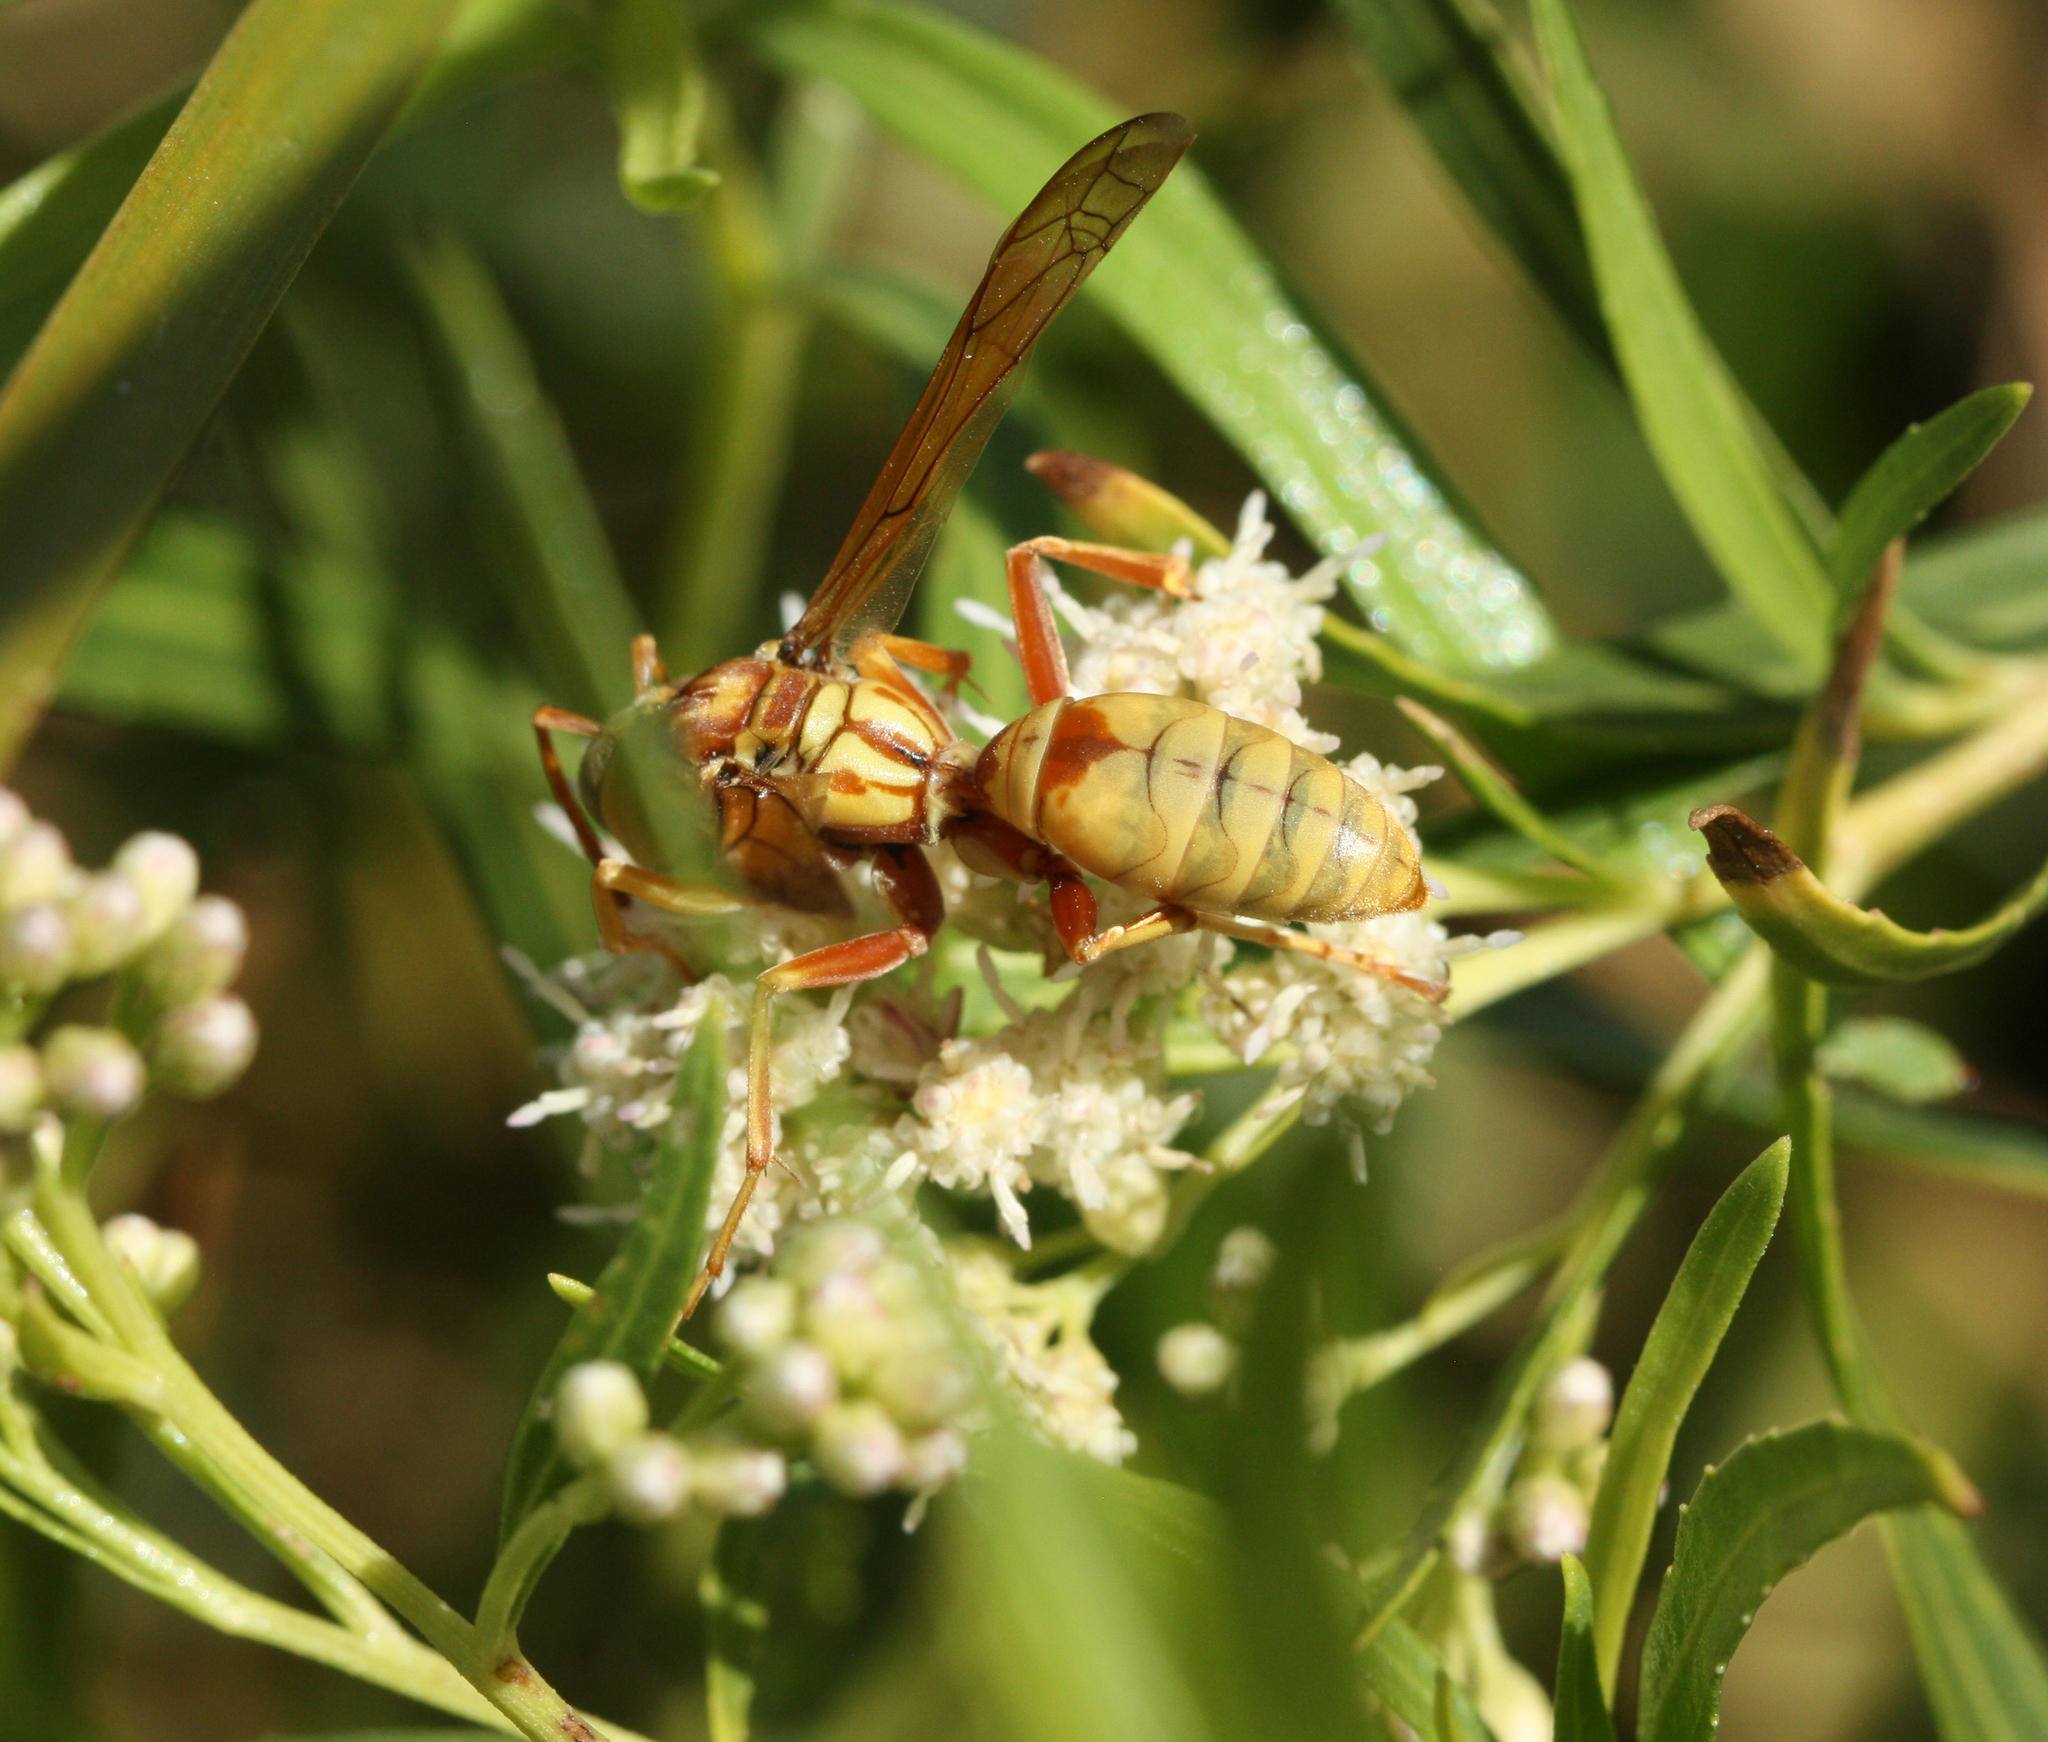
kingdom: Animalia
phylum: Arthropoda
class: Insecta
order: Hymenoptera
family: Eumenidae
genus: Polistes
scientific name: Polistes aurifer
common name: Paper wasp
